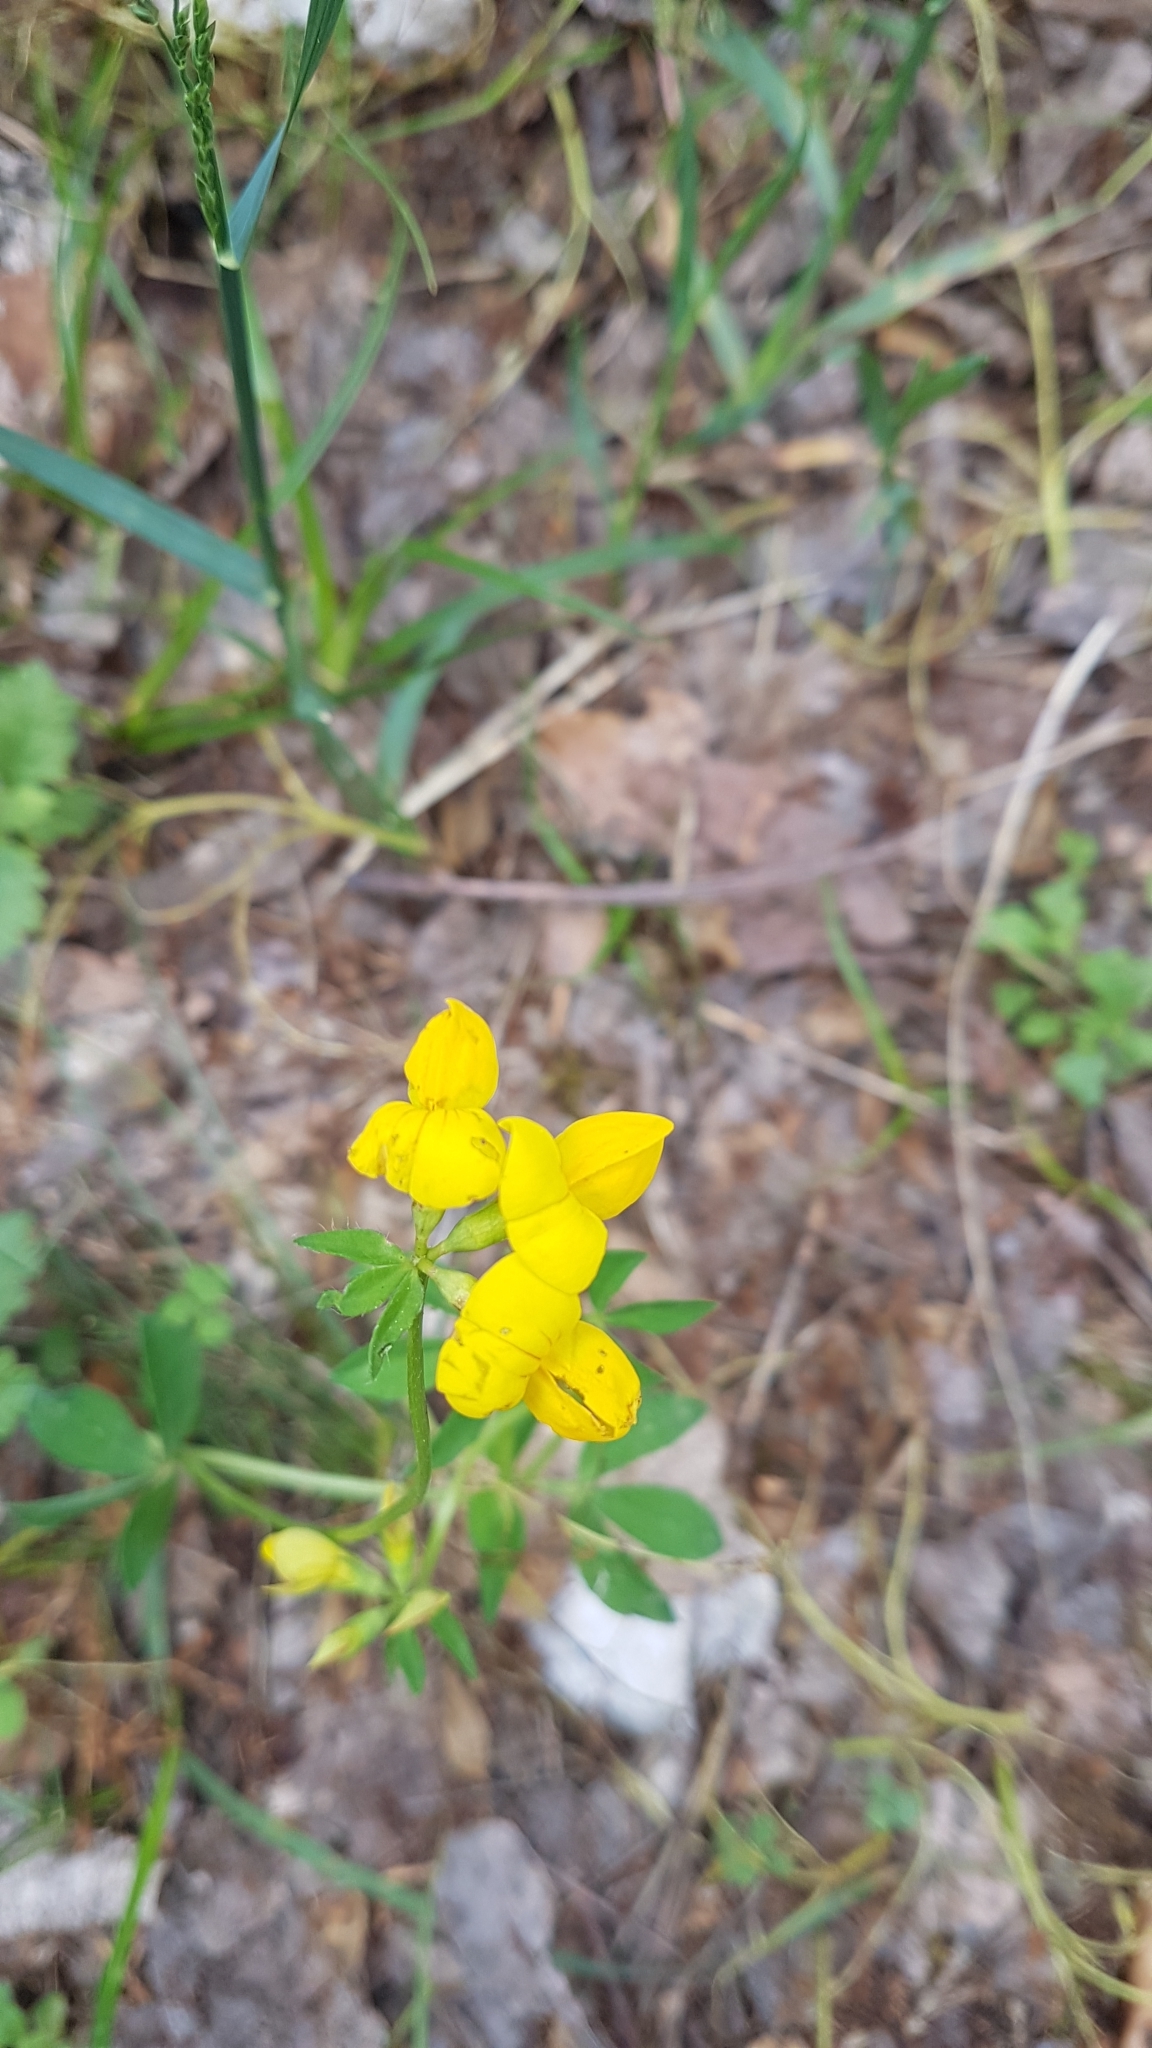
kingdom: Plantae
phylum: Tracheophyta
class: Magnoliopsida
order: Fabales
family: Fabaceae
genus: Lotus
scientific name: Lotus corniculatus
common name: Common bird's-foot-trefoil
